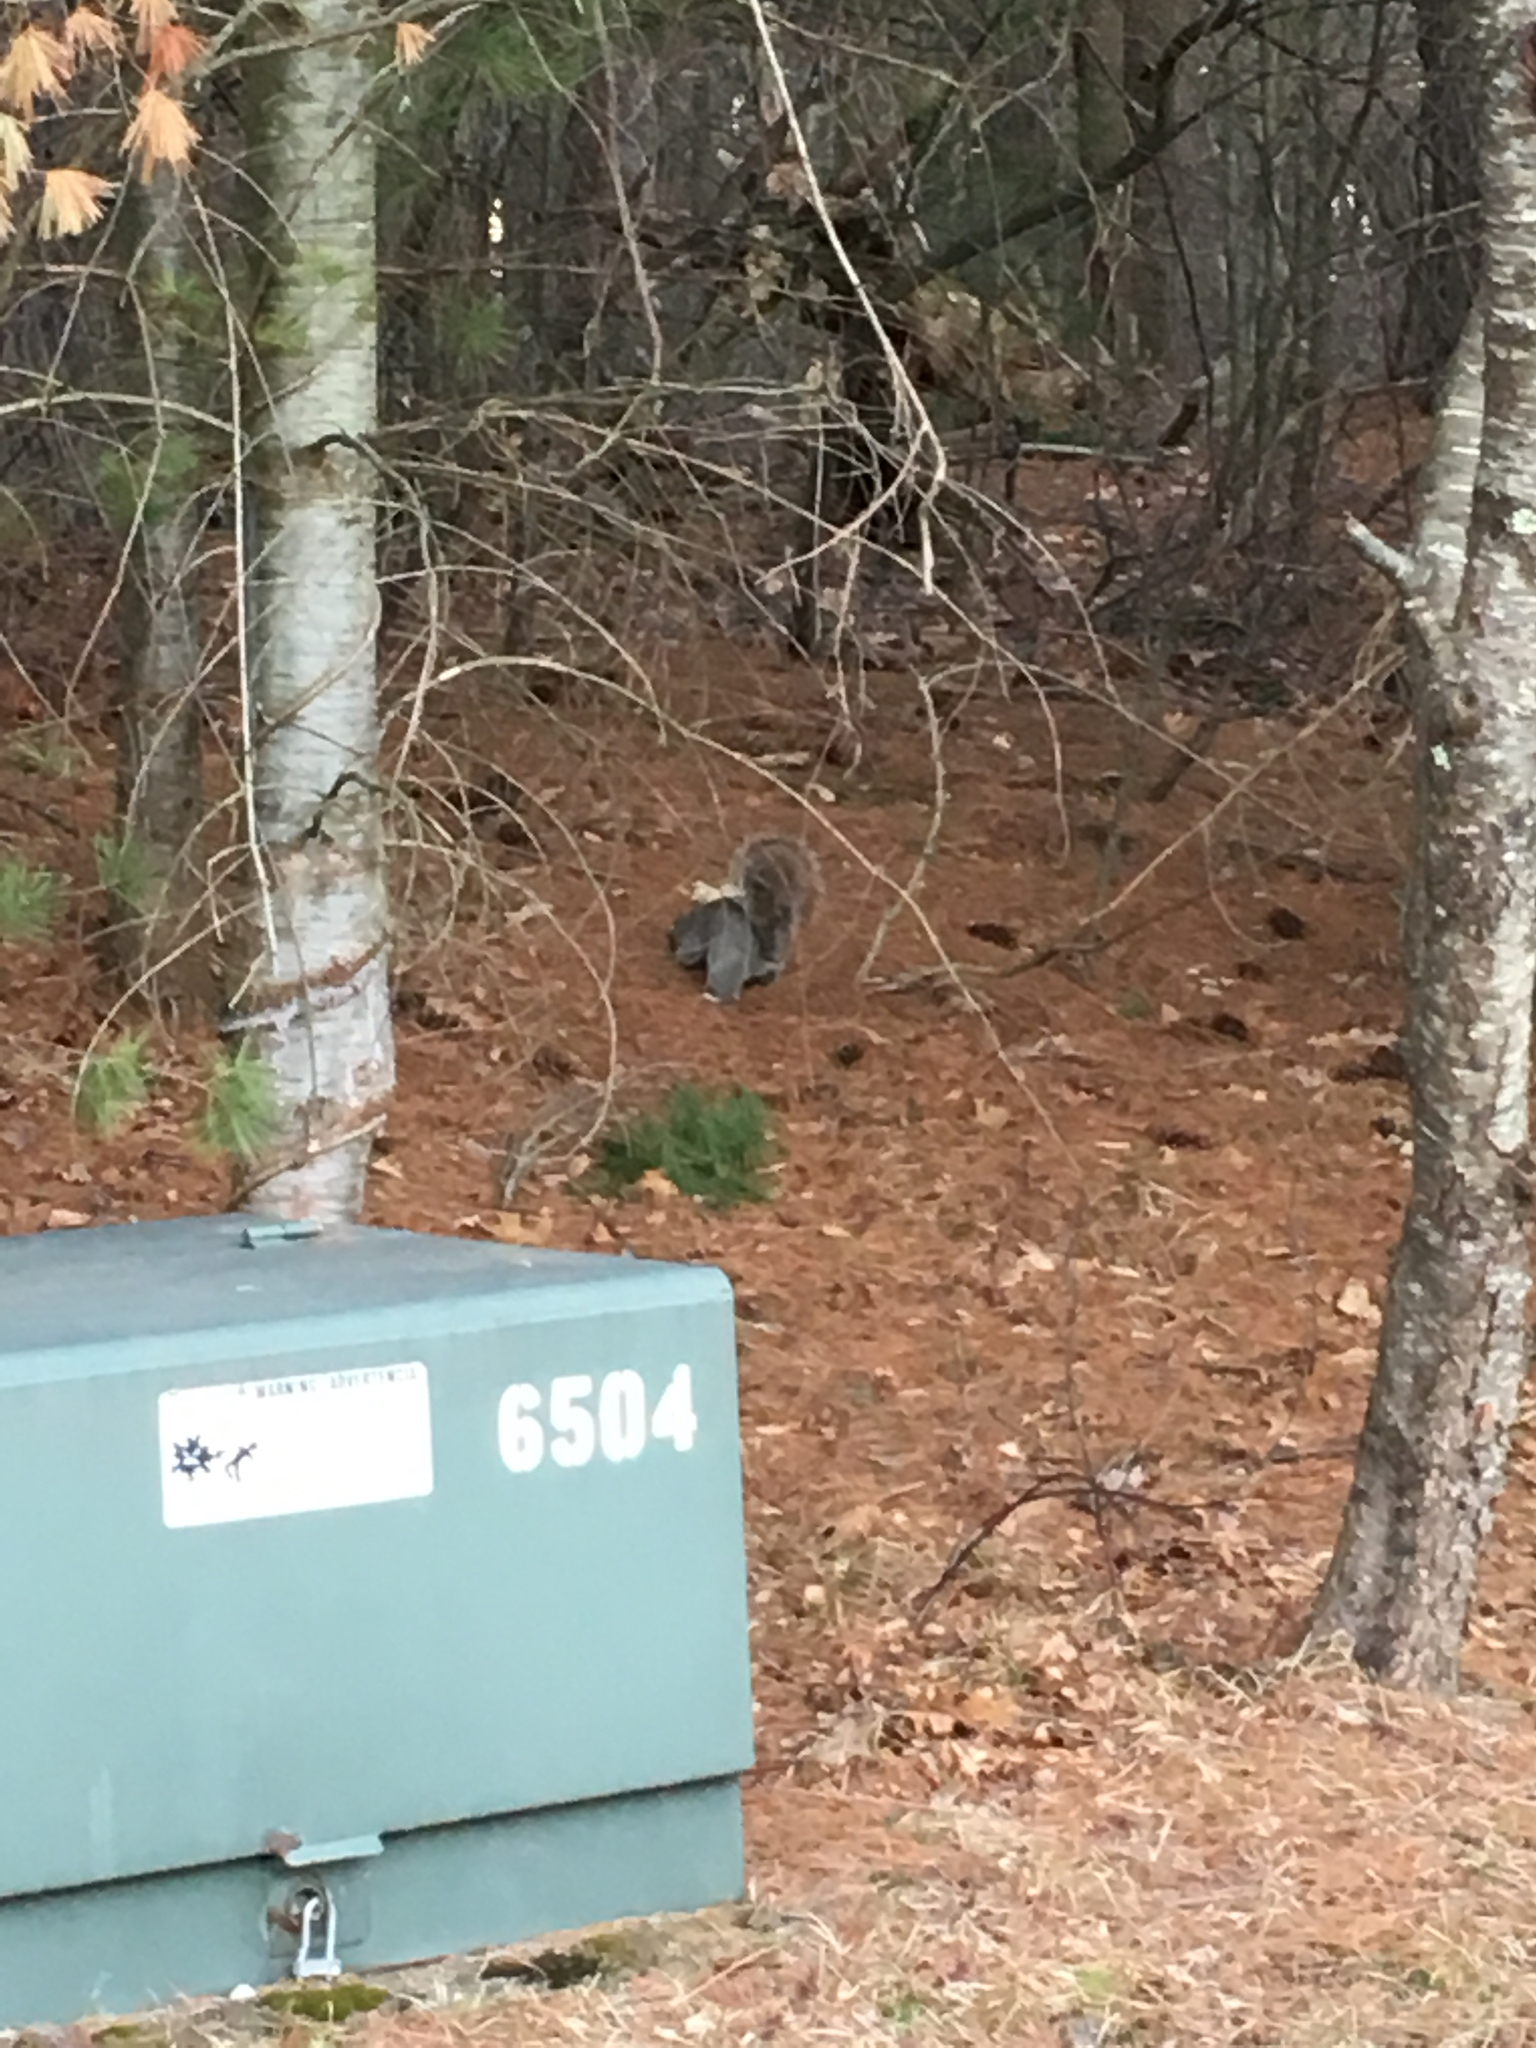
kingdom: Animalia
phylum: Chordata
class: Mammalia
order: Rodentia
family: Sciuridae
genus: Sciurus
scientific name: Sciurus carolinensis
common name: Eastern gray squirrel
